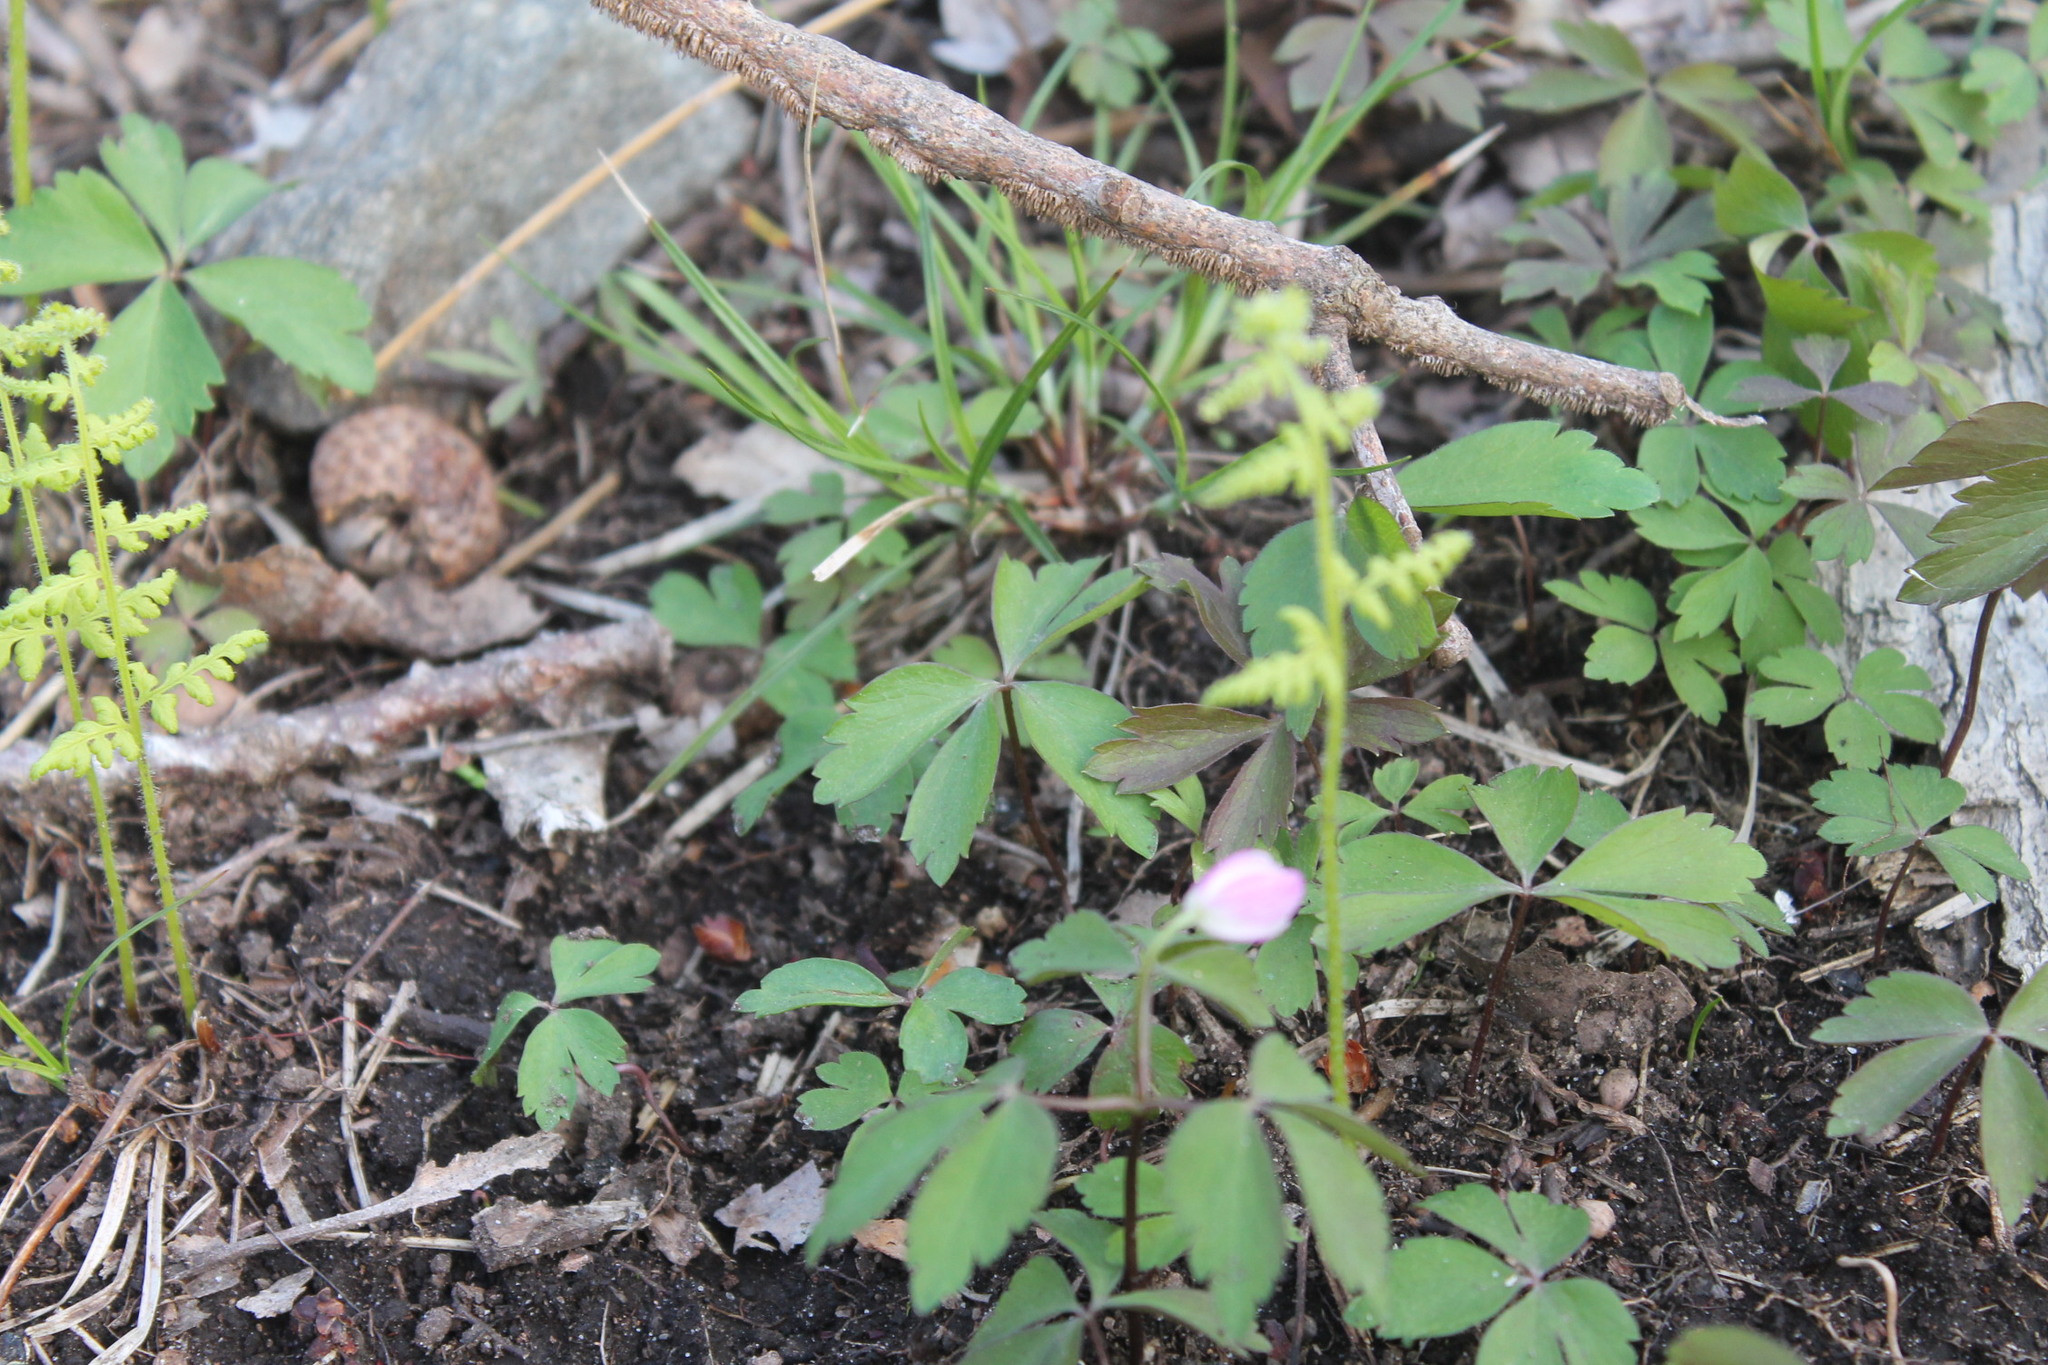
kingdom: Plantae
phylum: Tracheophyta
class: Magnoliopsida
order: Ranunculales
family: Ranunculaceae
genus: Anemone
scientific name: Anemone quinquefolia
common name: Wood anemone
